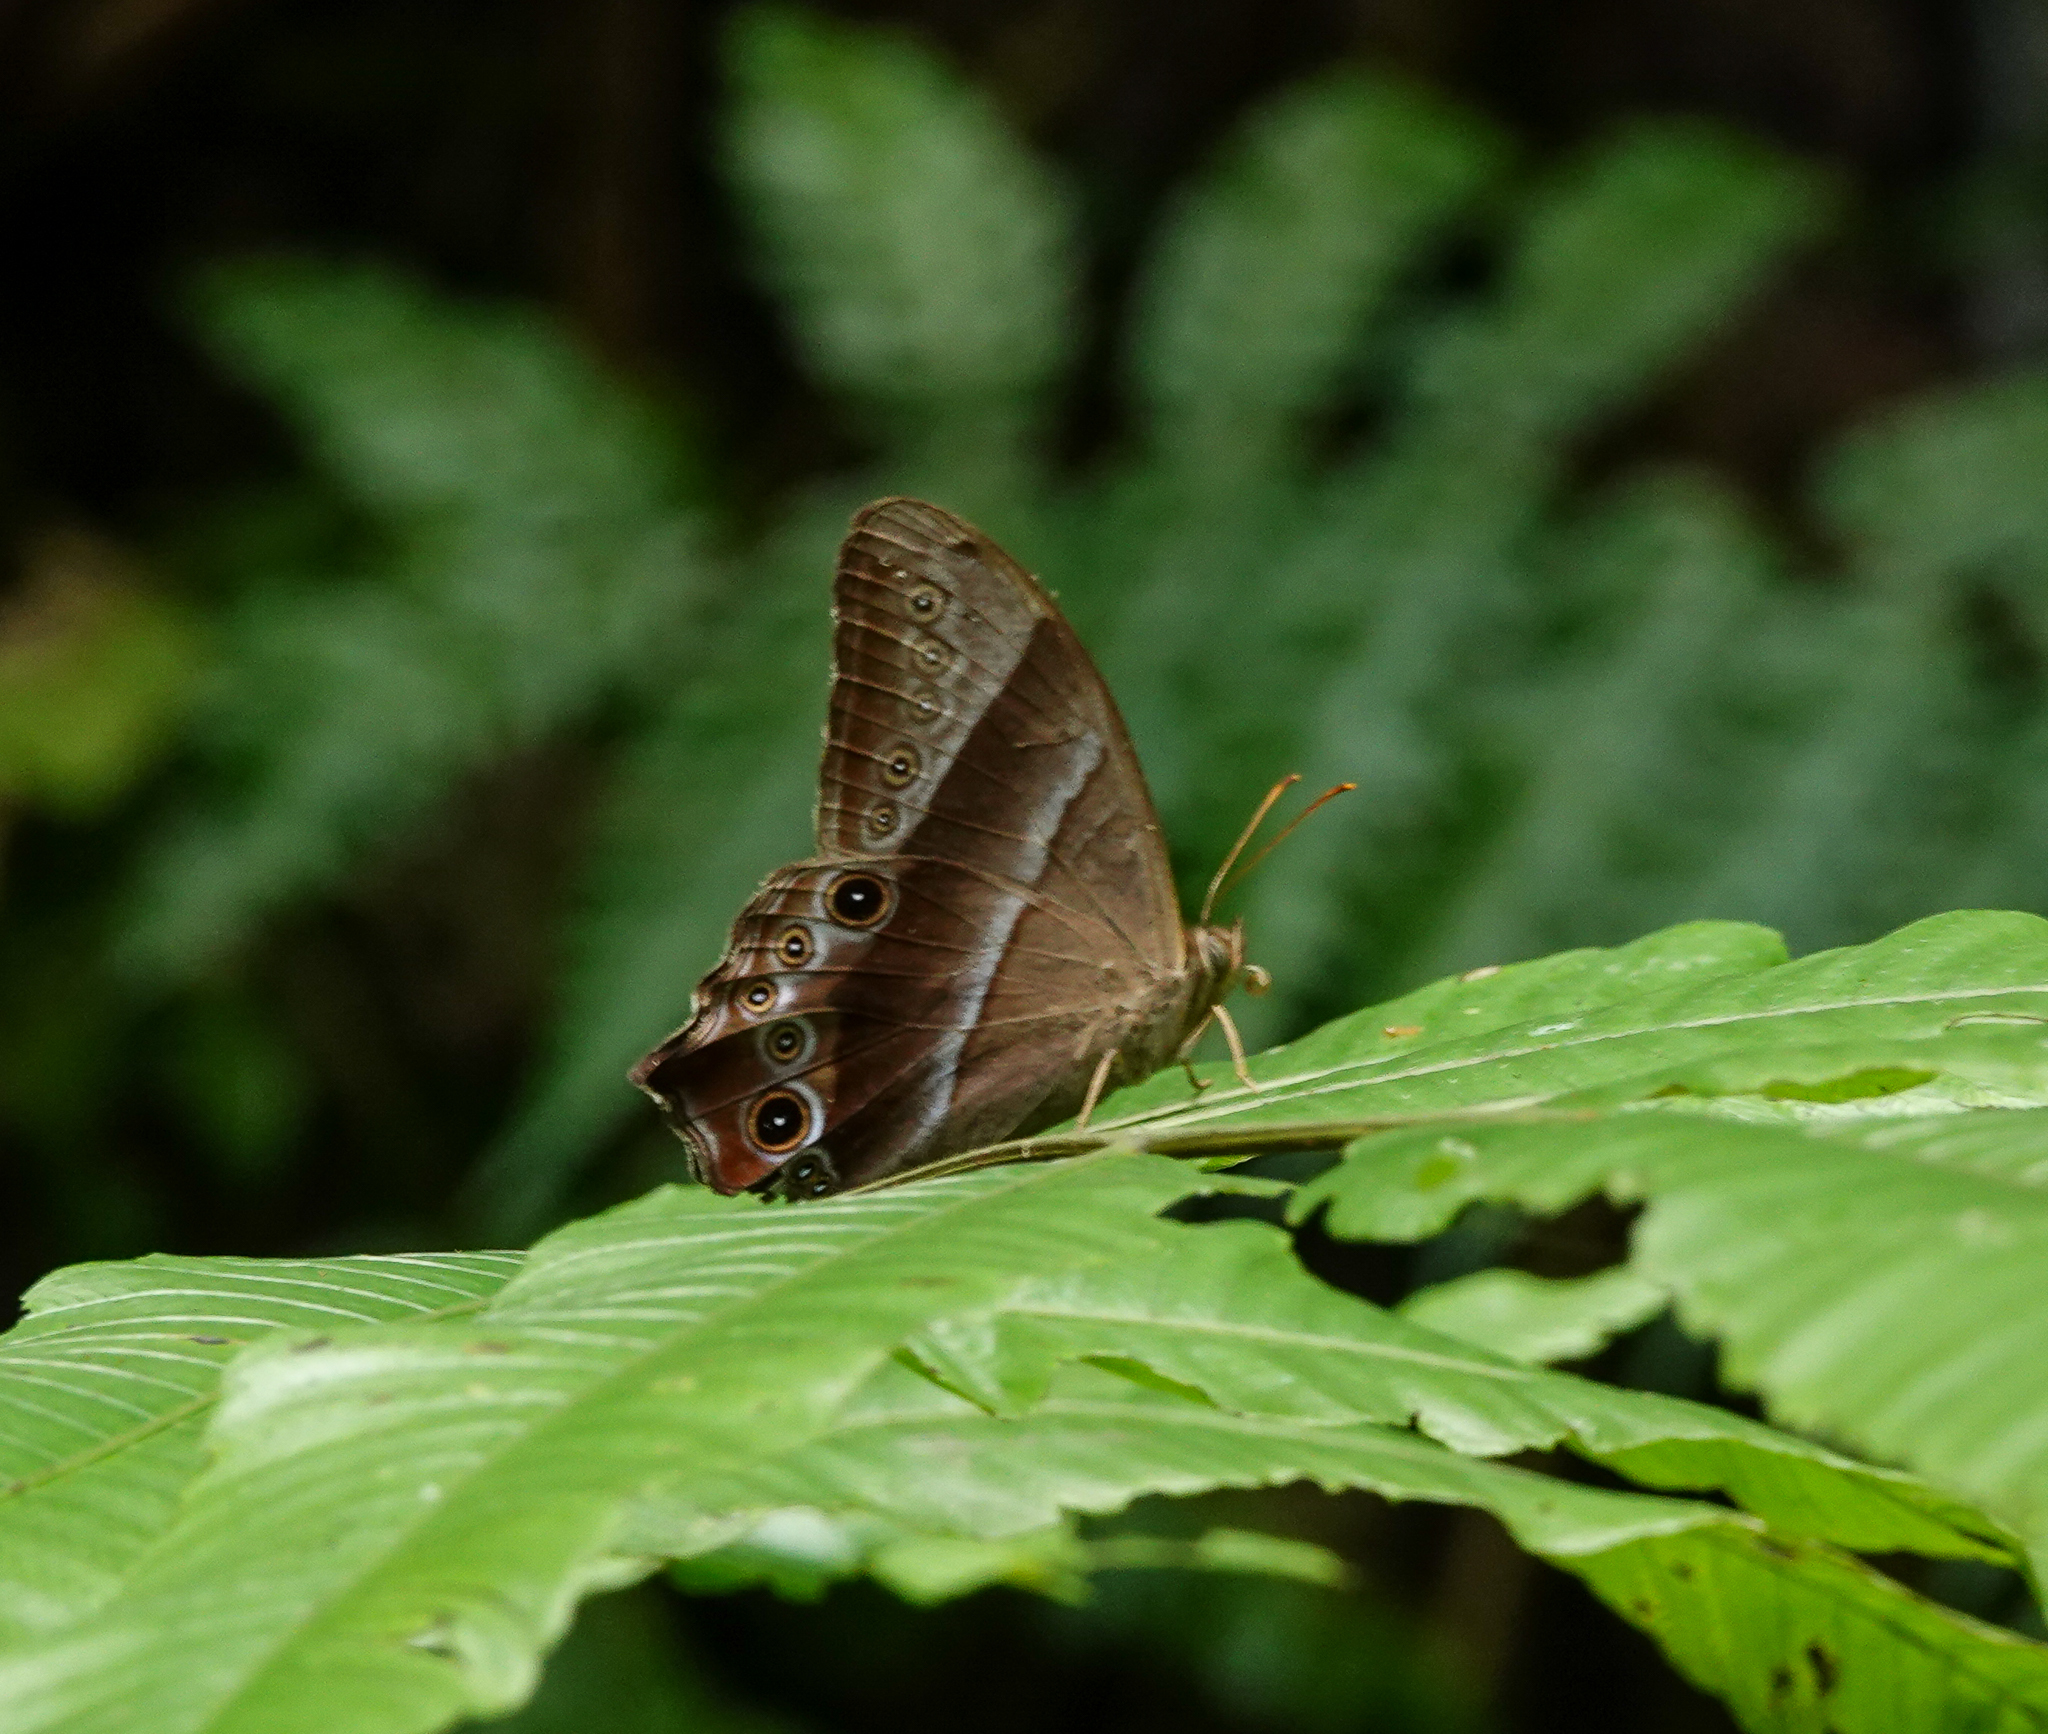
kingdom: Animalia
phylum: Arthropoda
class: Insecta
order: Lepidoptera
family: Nymphalidae
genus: Lethe
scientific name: Lethe vindhya
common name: Black forester
